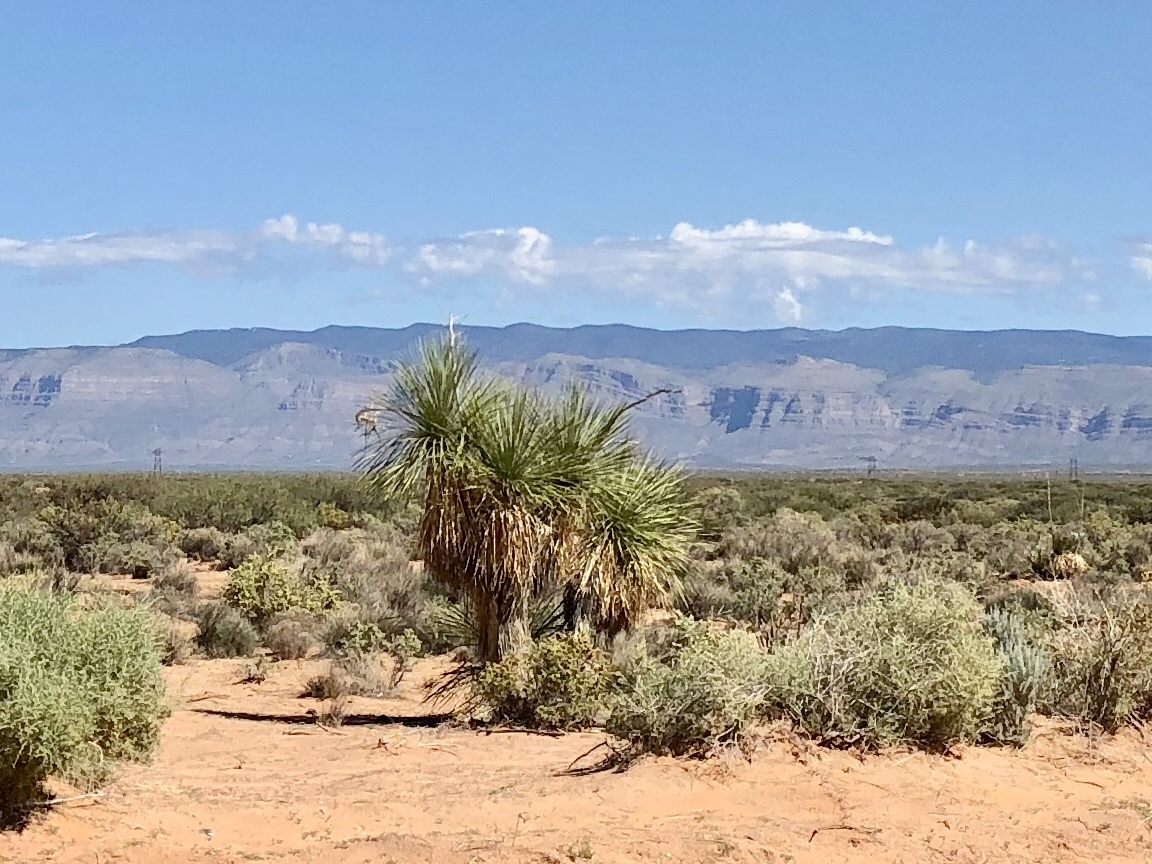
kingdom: Plantae
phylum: Tracheophyta
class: Liliopsida
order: Asparagales
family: Asparagaceae
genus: Yucca
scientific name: Yucca elata
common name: Palmella
